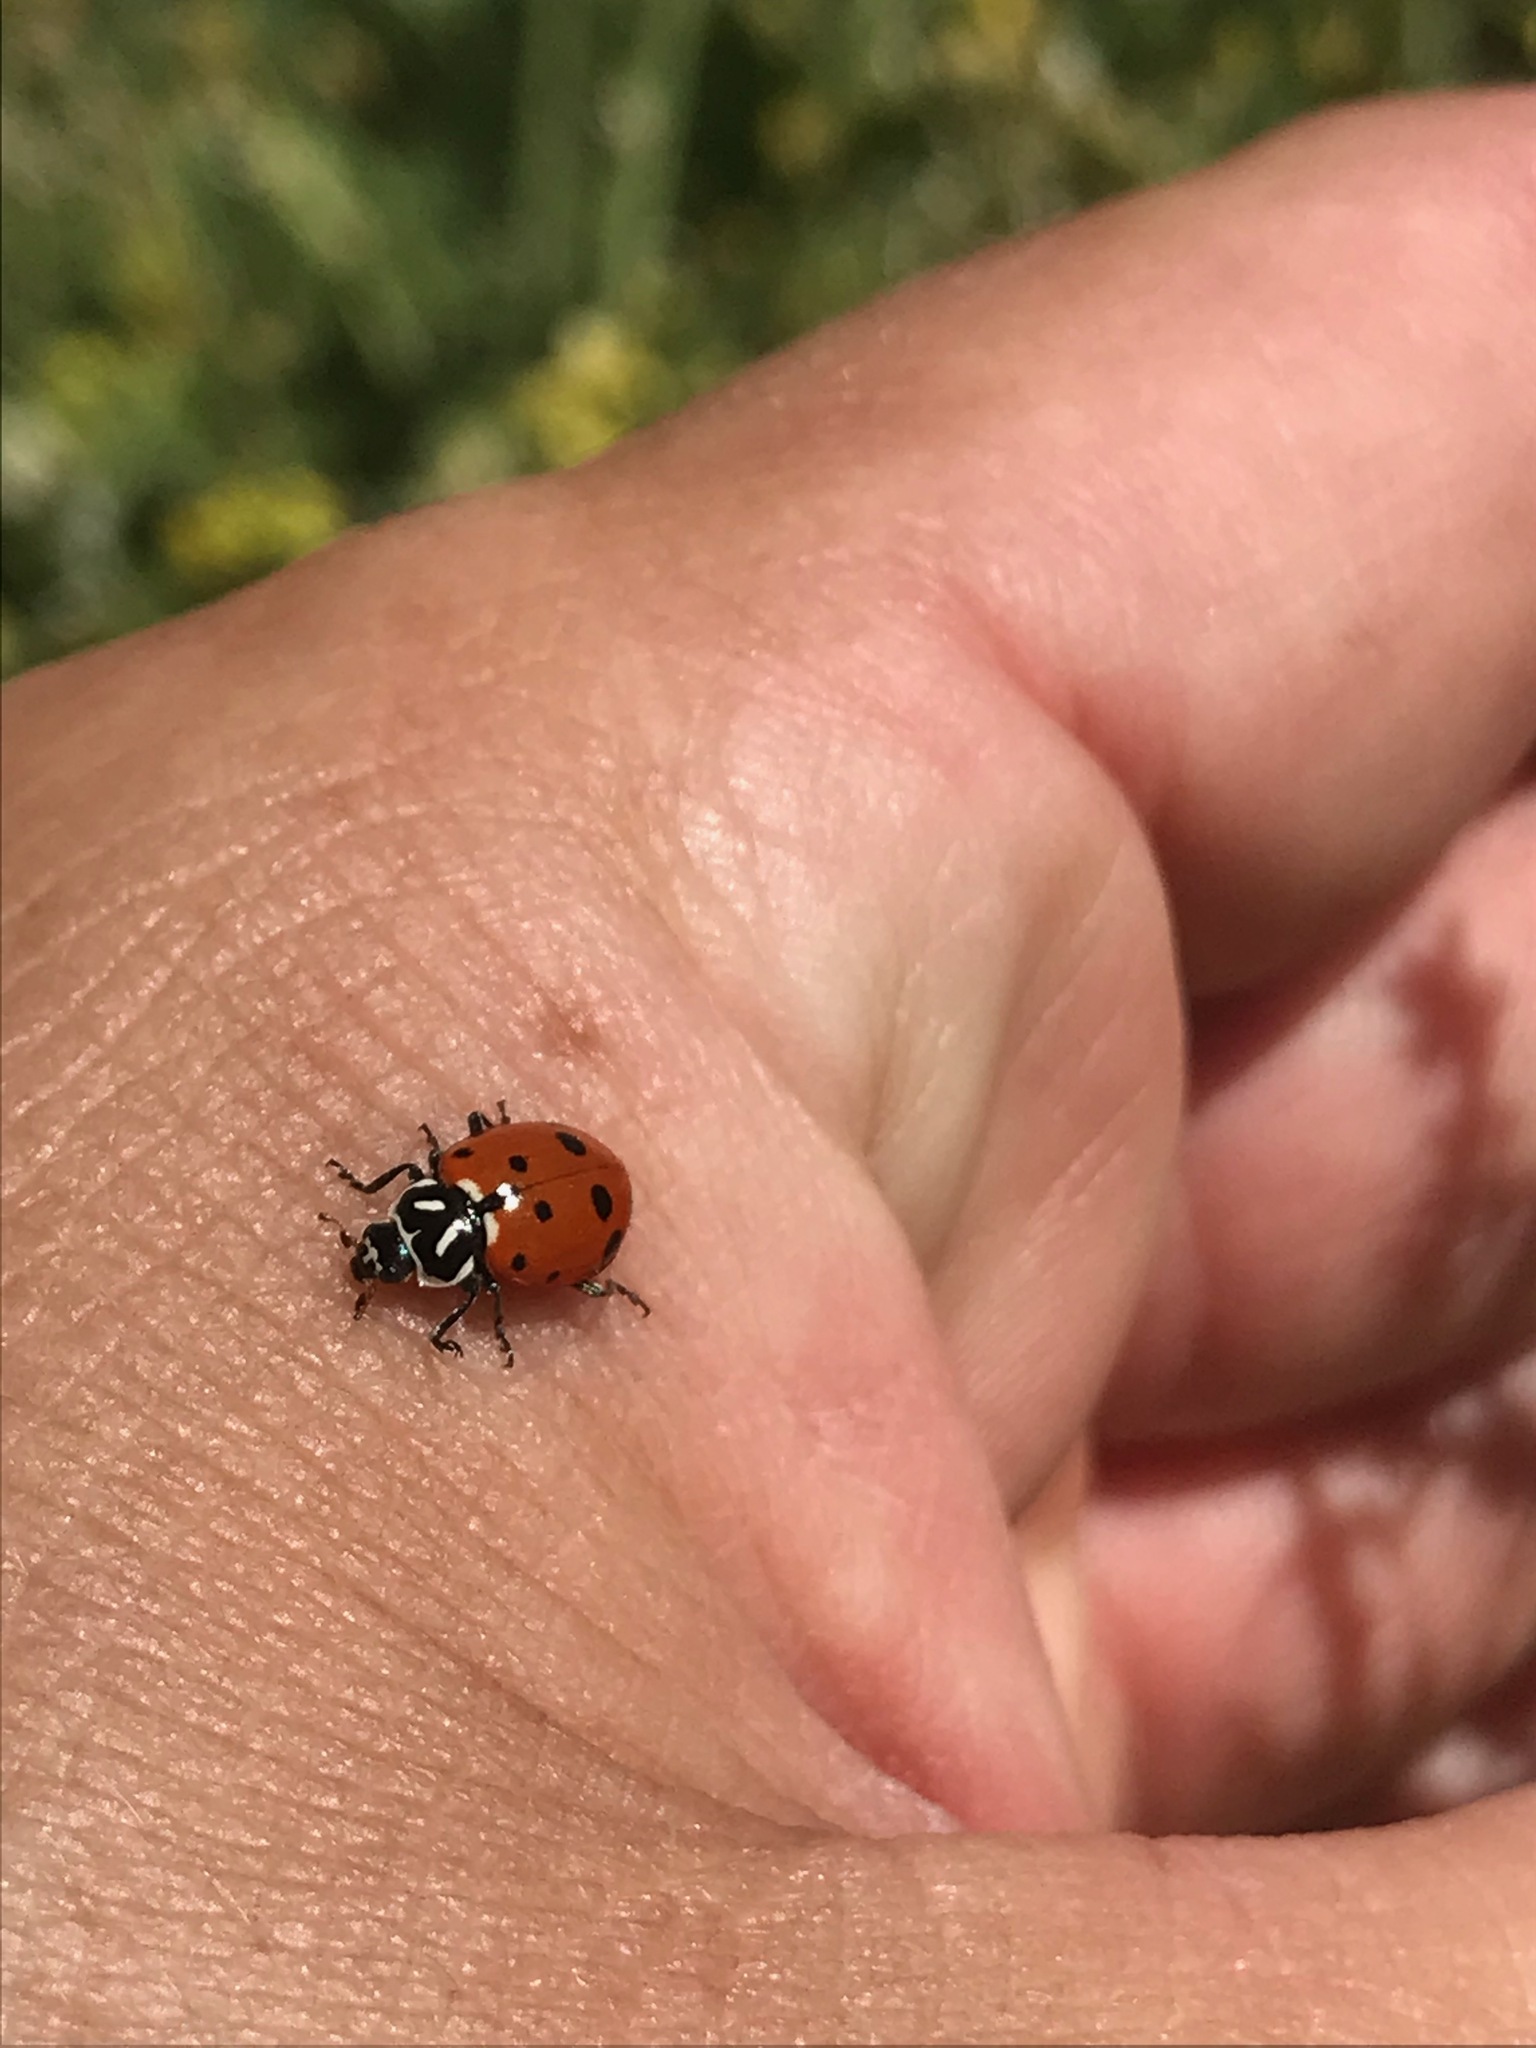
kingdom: Animalia
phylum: Arthropoda
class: Insecta
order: Coleoptera
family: Coccinellidae
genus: Hippodamia
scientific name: Hippodamia convergens
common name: Convergent lady beetle
